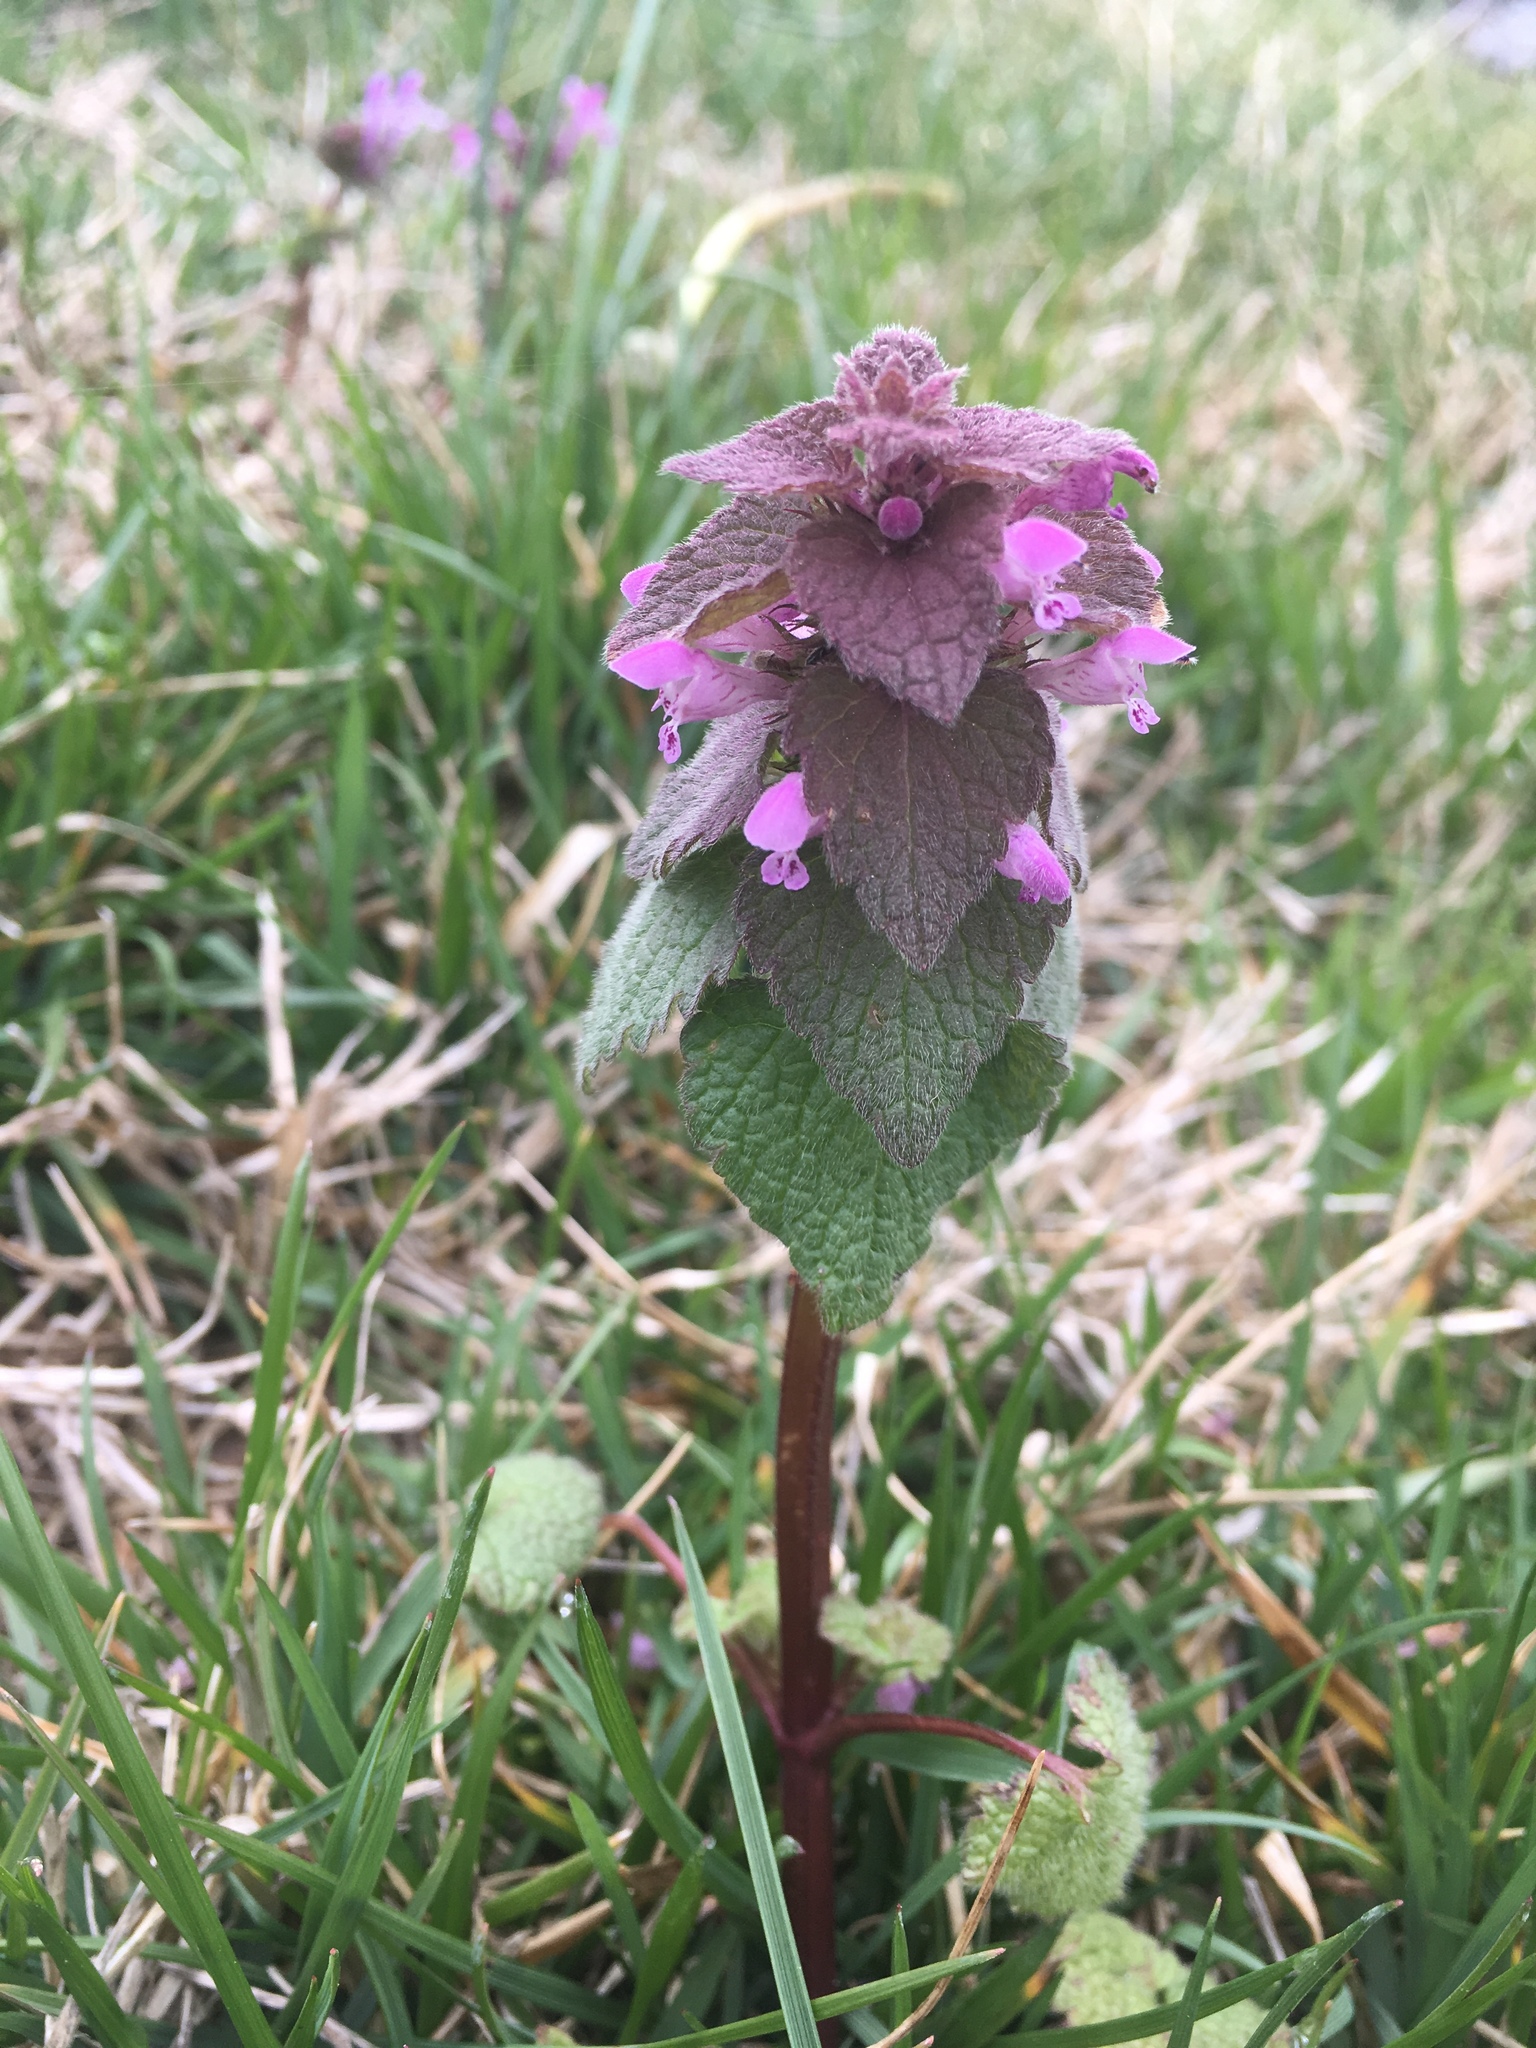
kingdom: Plantae
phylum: Tracheophyta
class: Magnoliopsida
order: Lamiales
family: Lamiaceae
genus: Lamium
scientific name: Lamium purpureum
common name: Red dead-nettle
